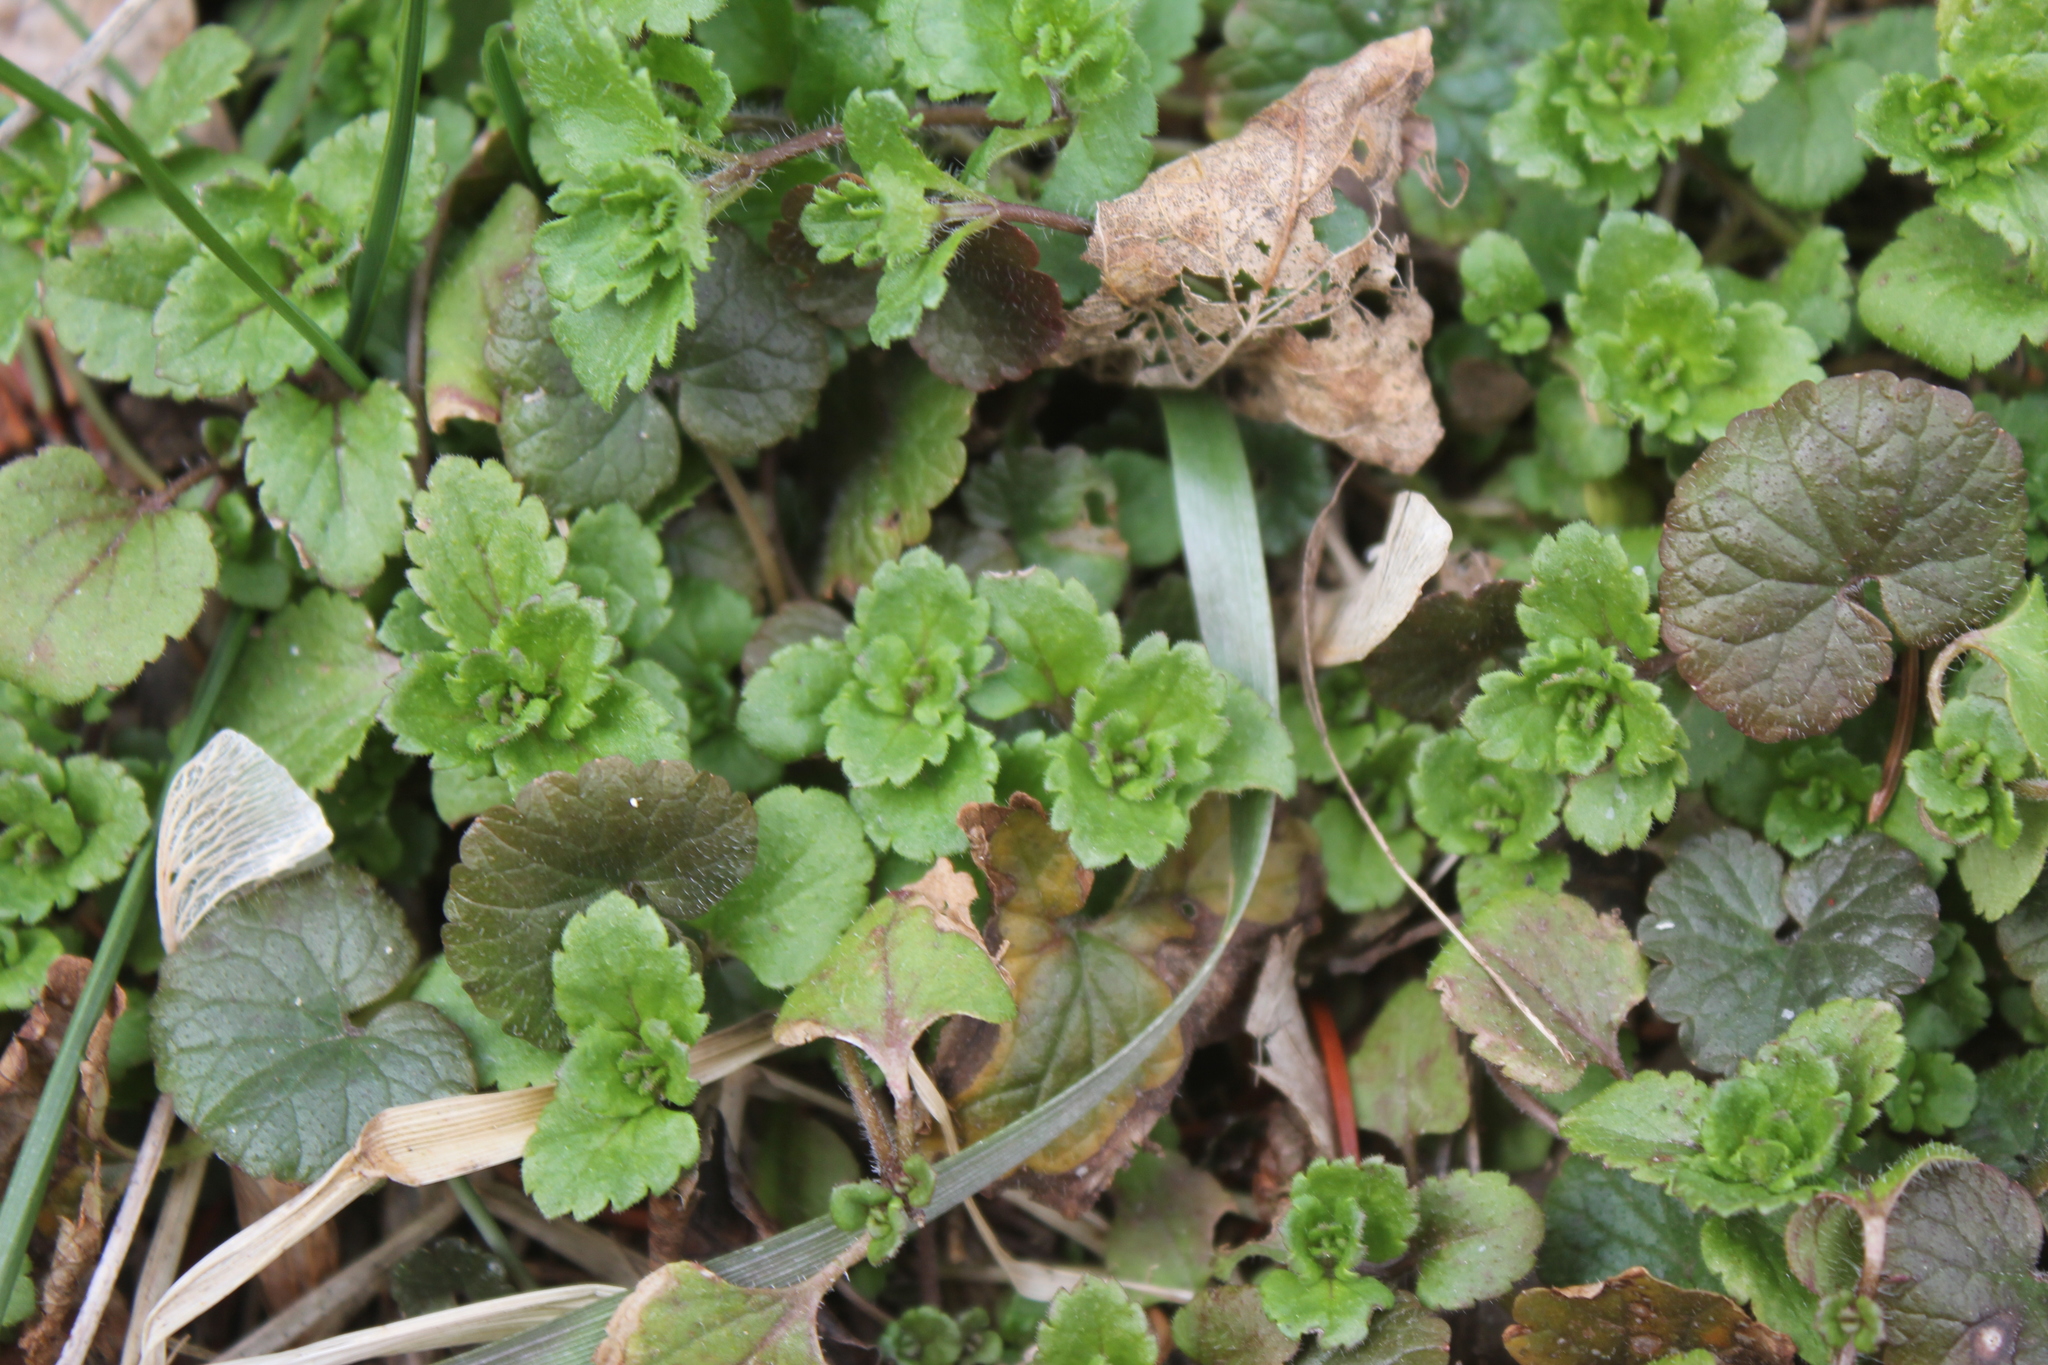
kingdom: Plantae
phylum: Tracheophyta
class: Magnoliopsida
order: Lamiales
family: Lamiaceae
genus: Glechoma
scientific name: Glechoma hederacea
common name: Ground ivy
